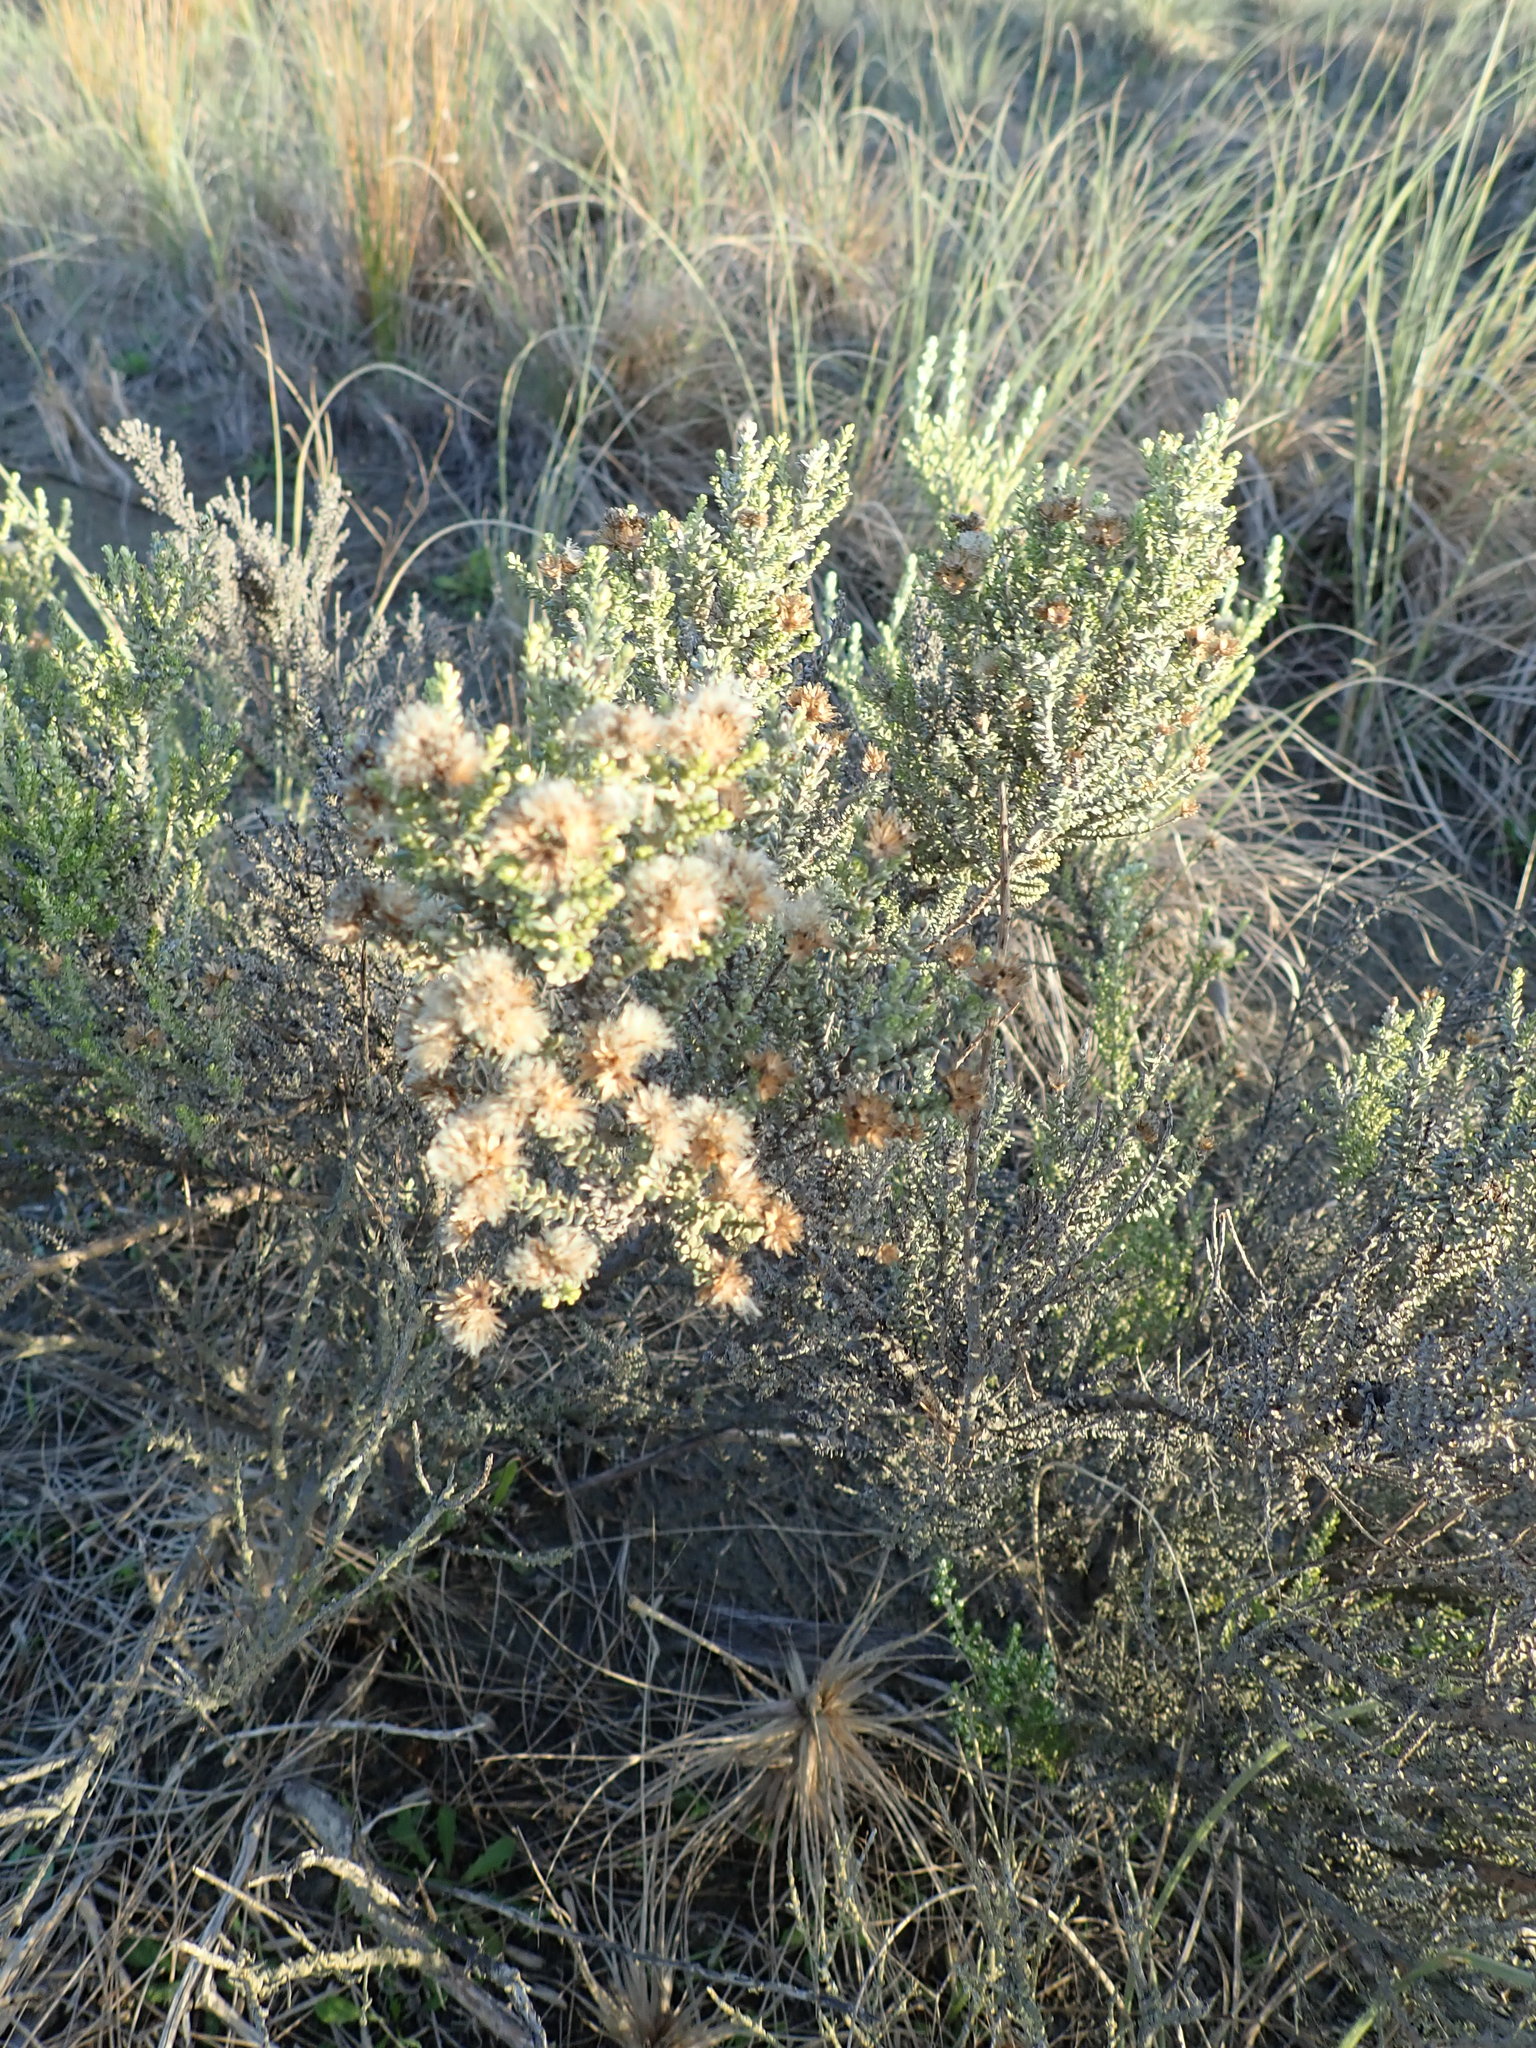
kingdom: Plantae
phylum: Tracheophyta
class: Magnoliopsida
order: Asterales
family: Asteraceae
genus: Ozothamnus
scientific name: Ozothamnus leptophyllus
